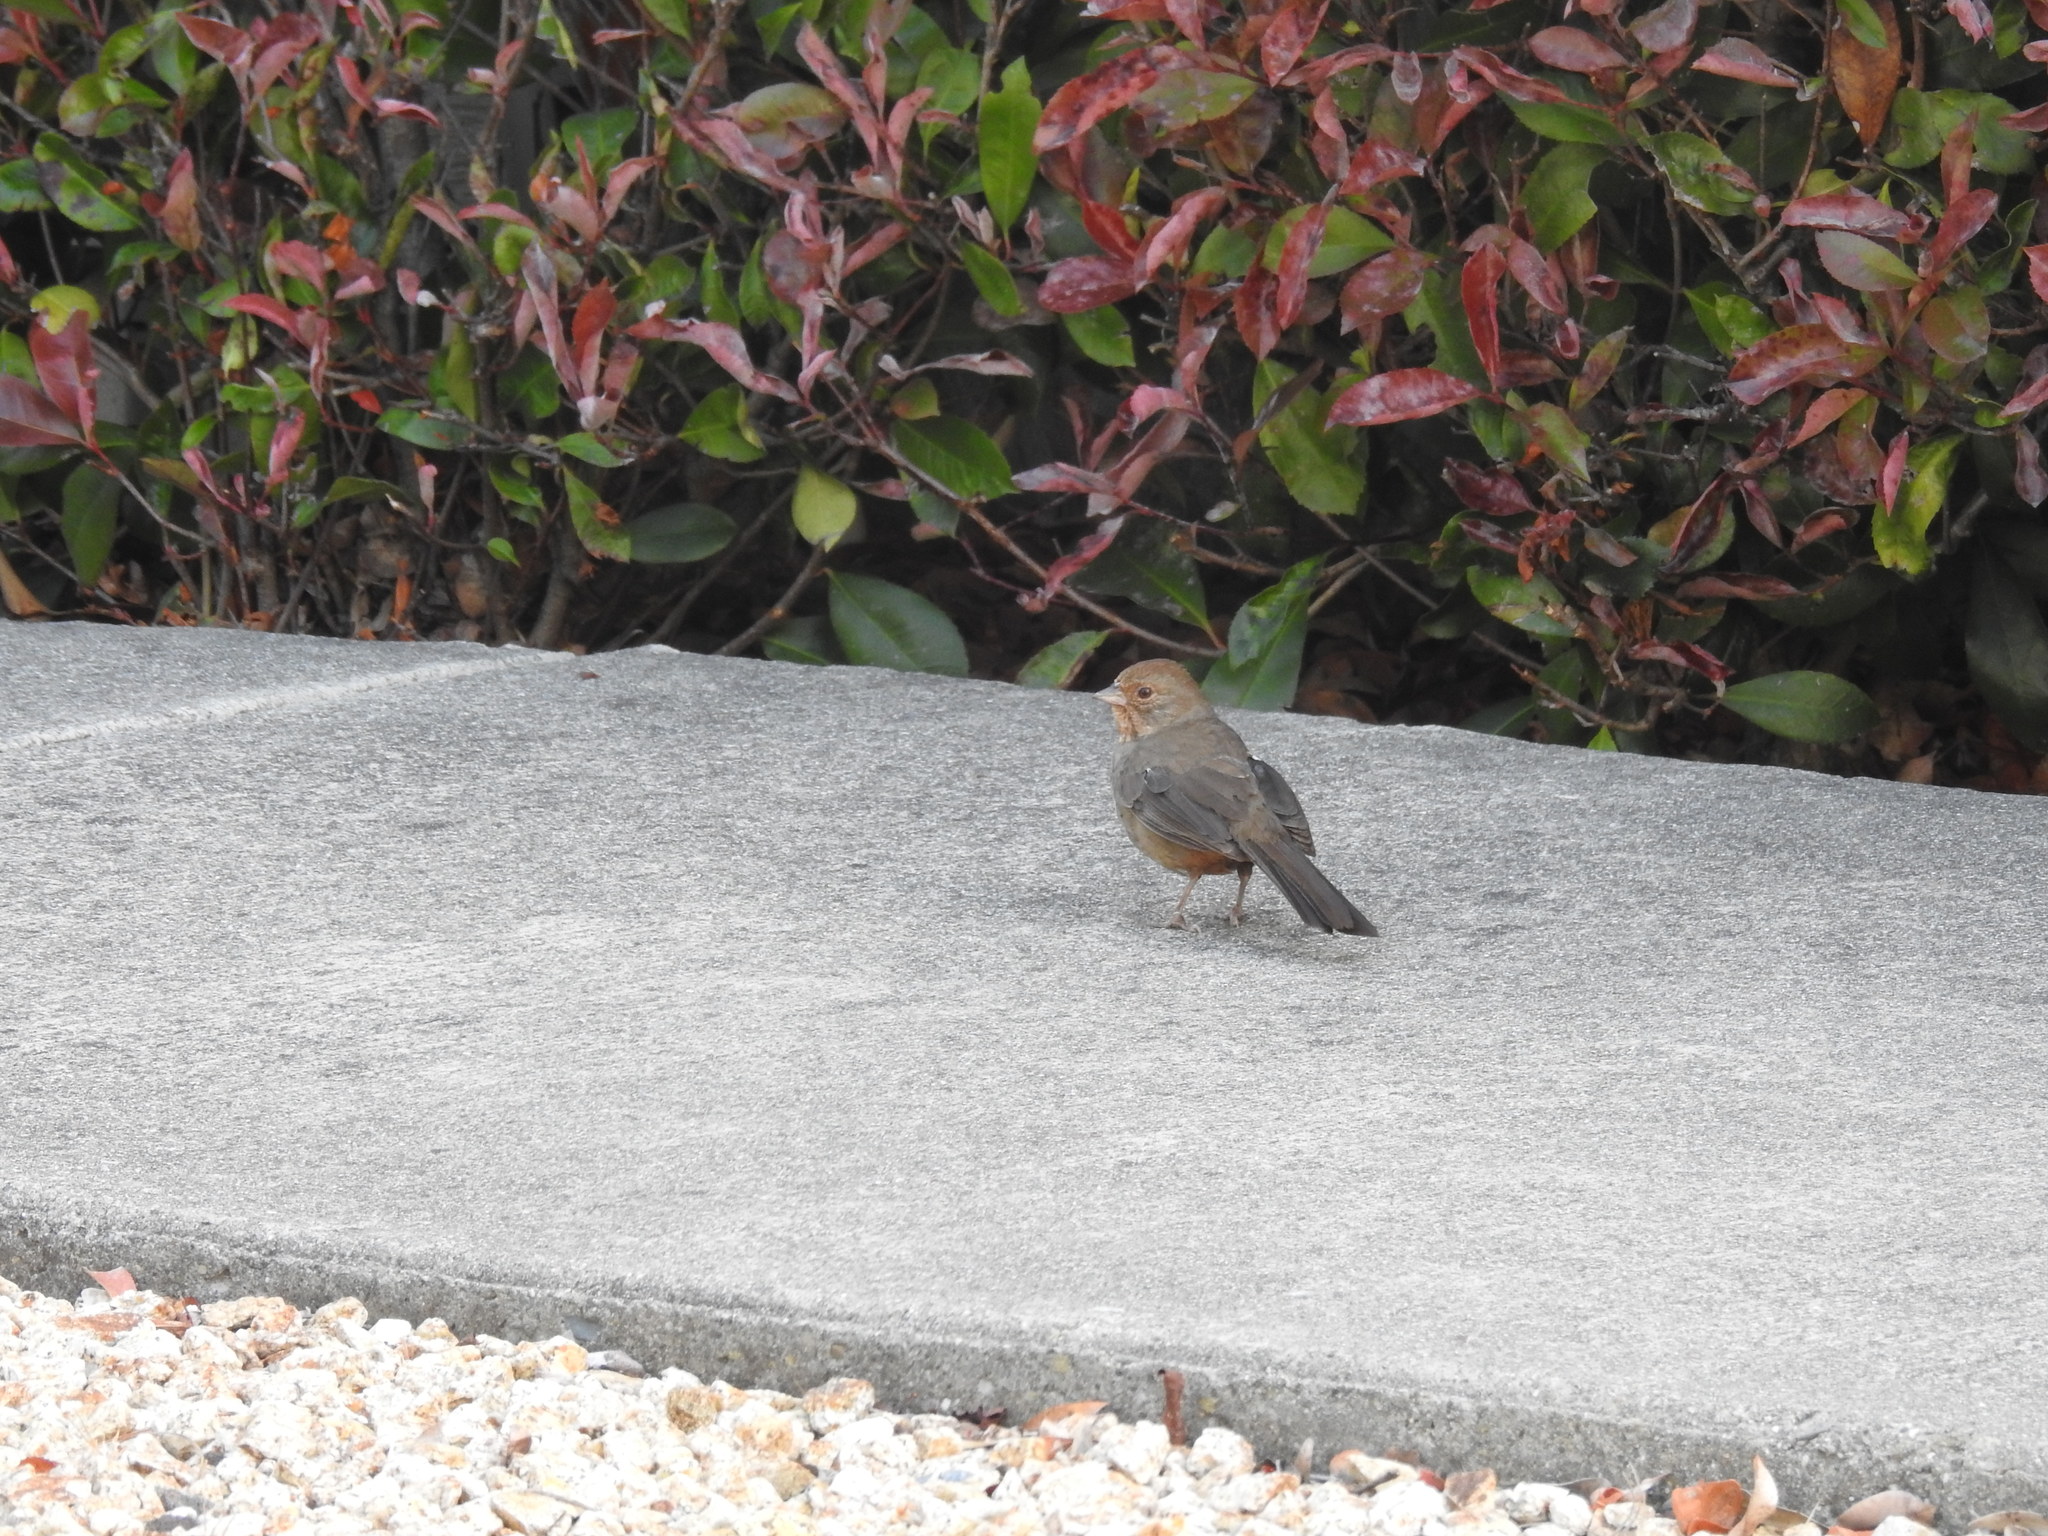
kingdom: Animalia
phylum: Chordata
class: Aves
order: Passeriformes
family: Passerellidae
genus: Melozone
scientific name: Melozone crissalis
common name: California towhee
